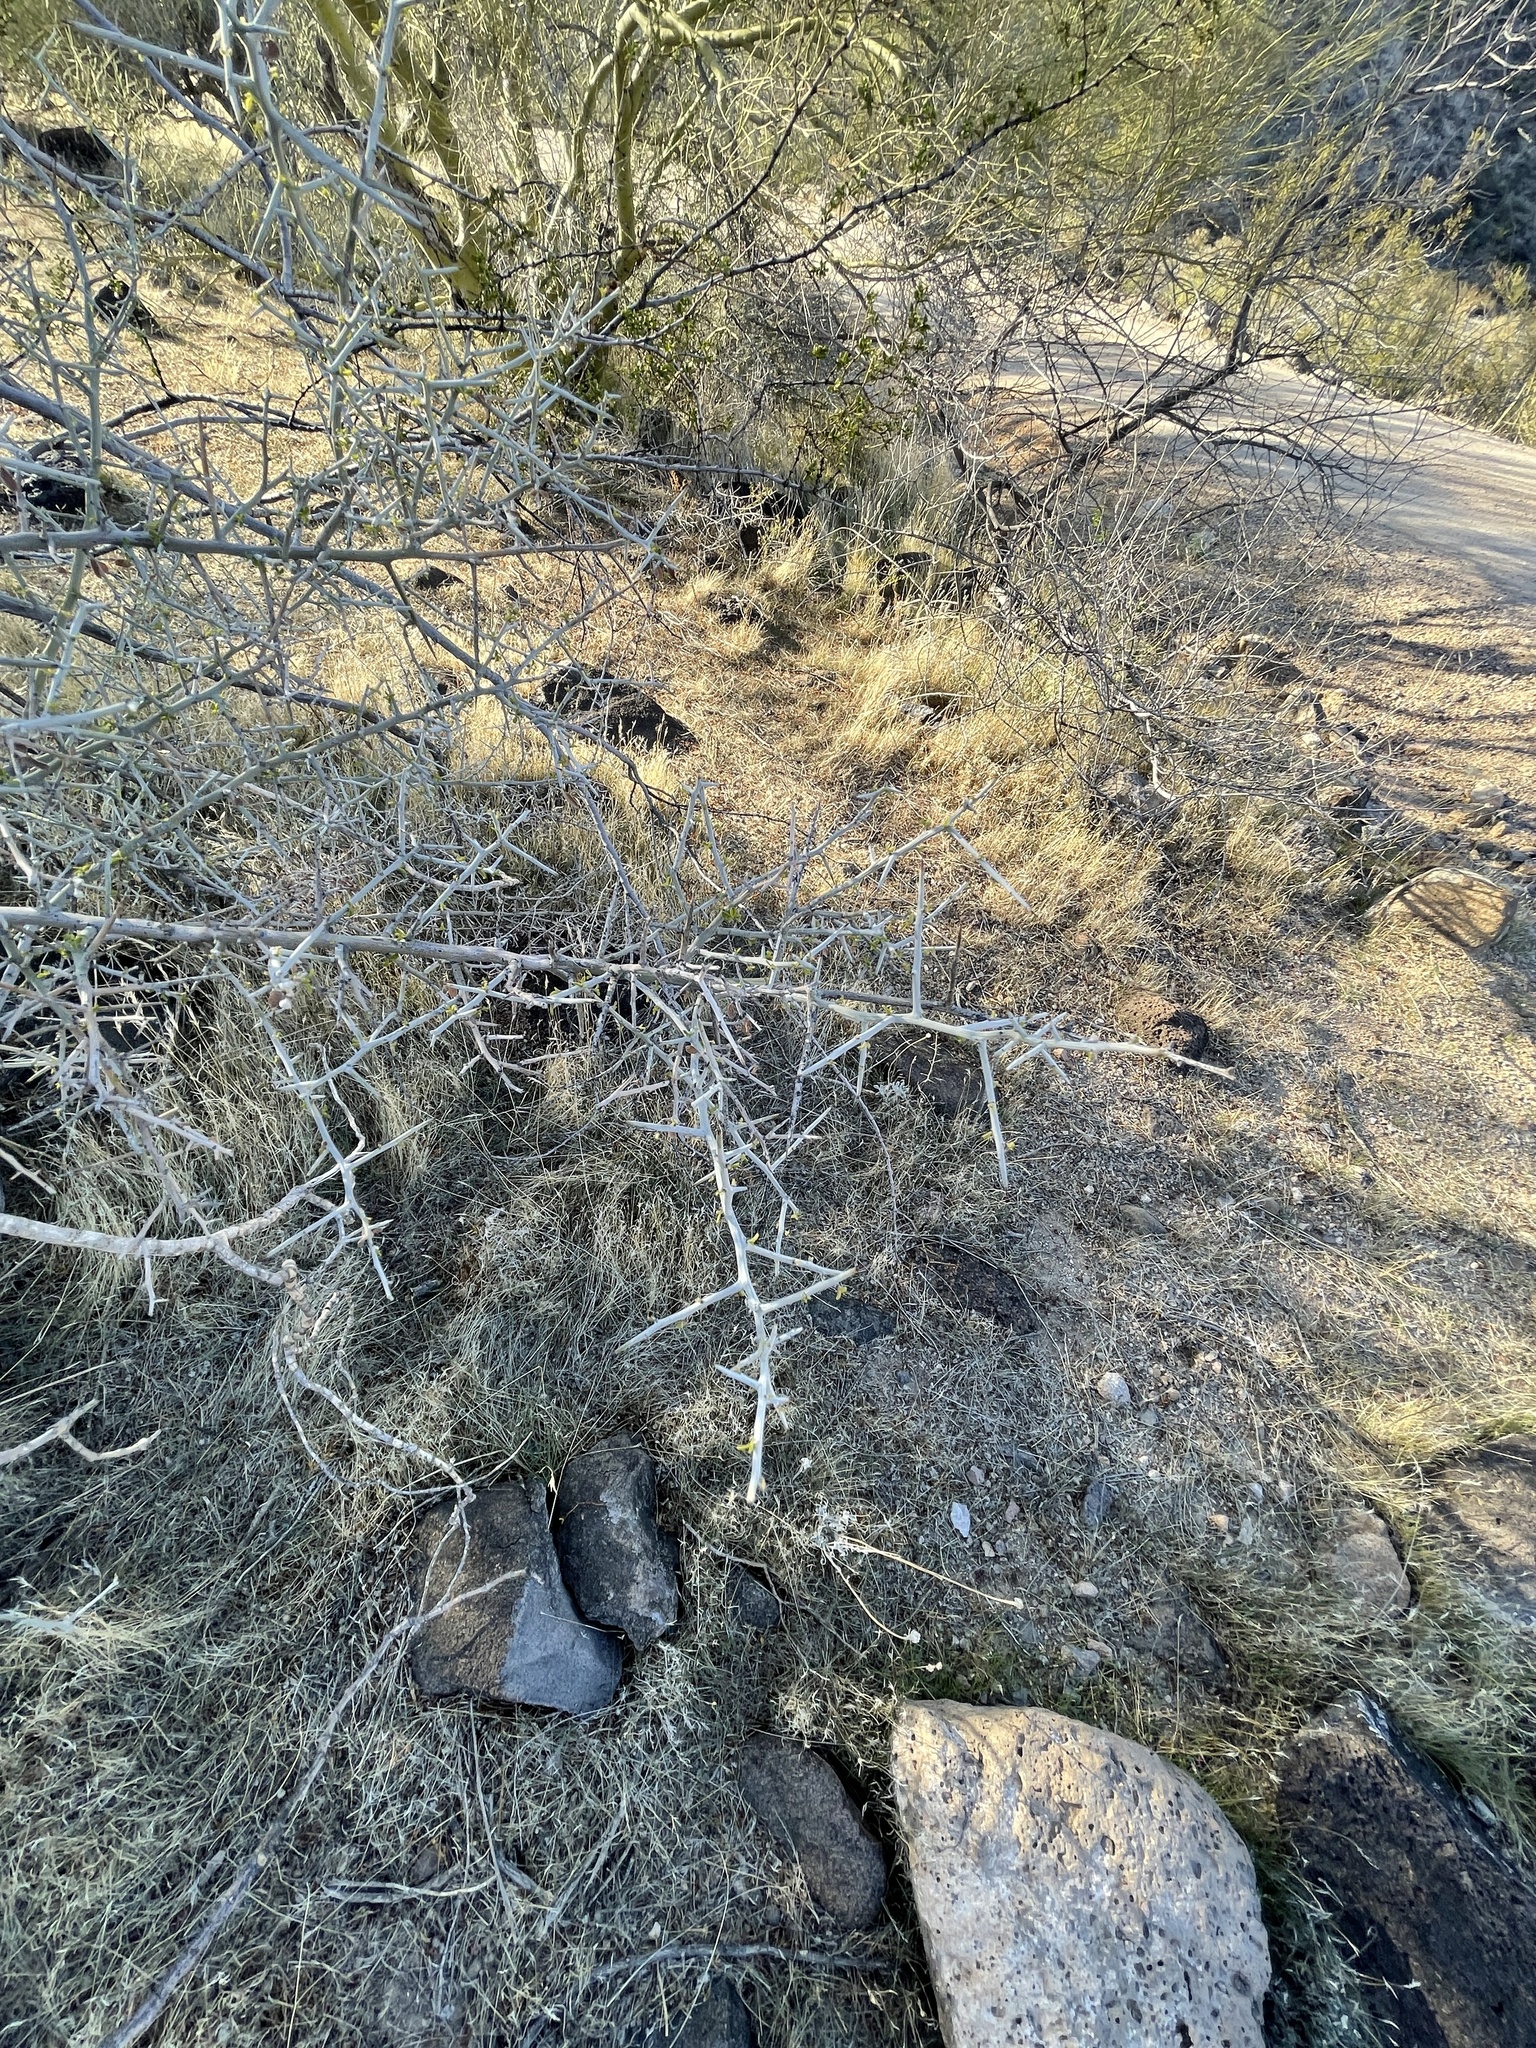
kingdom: Plantae
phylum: Tracheophyta
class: Magnoliopsida
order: Rosales
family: Rhamnaceae
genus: Sarcomphalus
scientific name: Sarcomphalus obtusifolius
